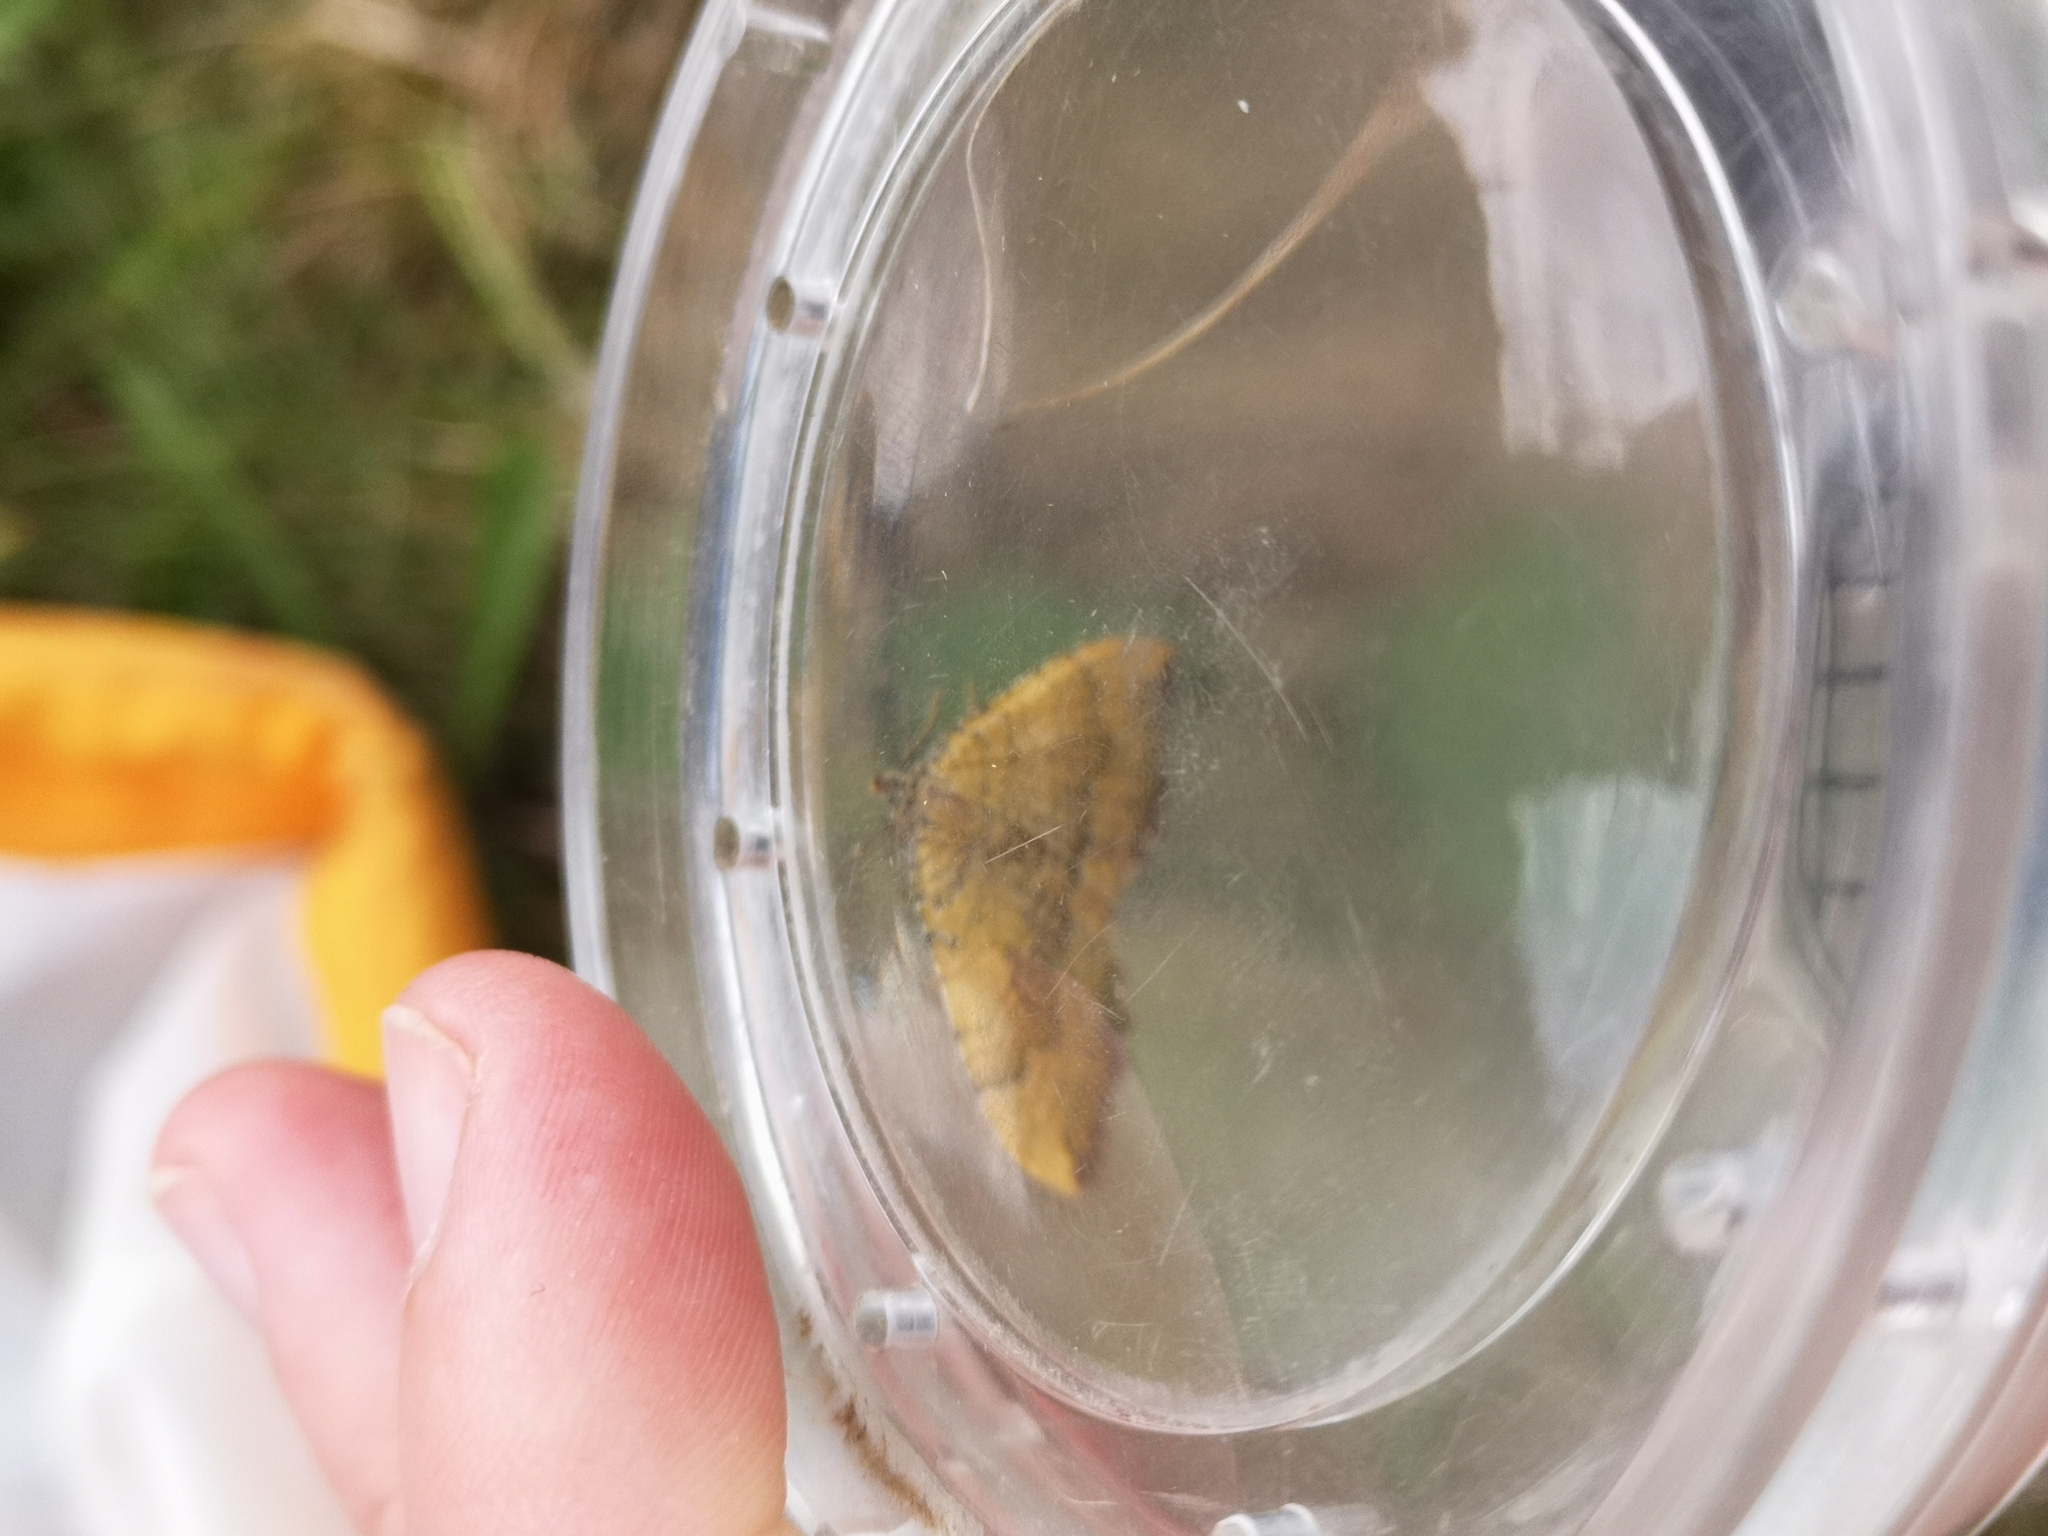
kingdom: Animalia
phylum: Arthropoda
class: Insecta
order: Lepidoptera
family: Geometridae
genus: Camptogramma
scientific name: Camptogramma bilineata
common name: Yellow shell
